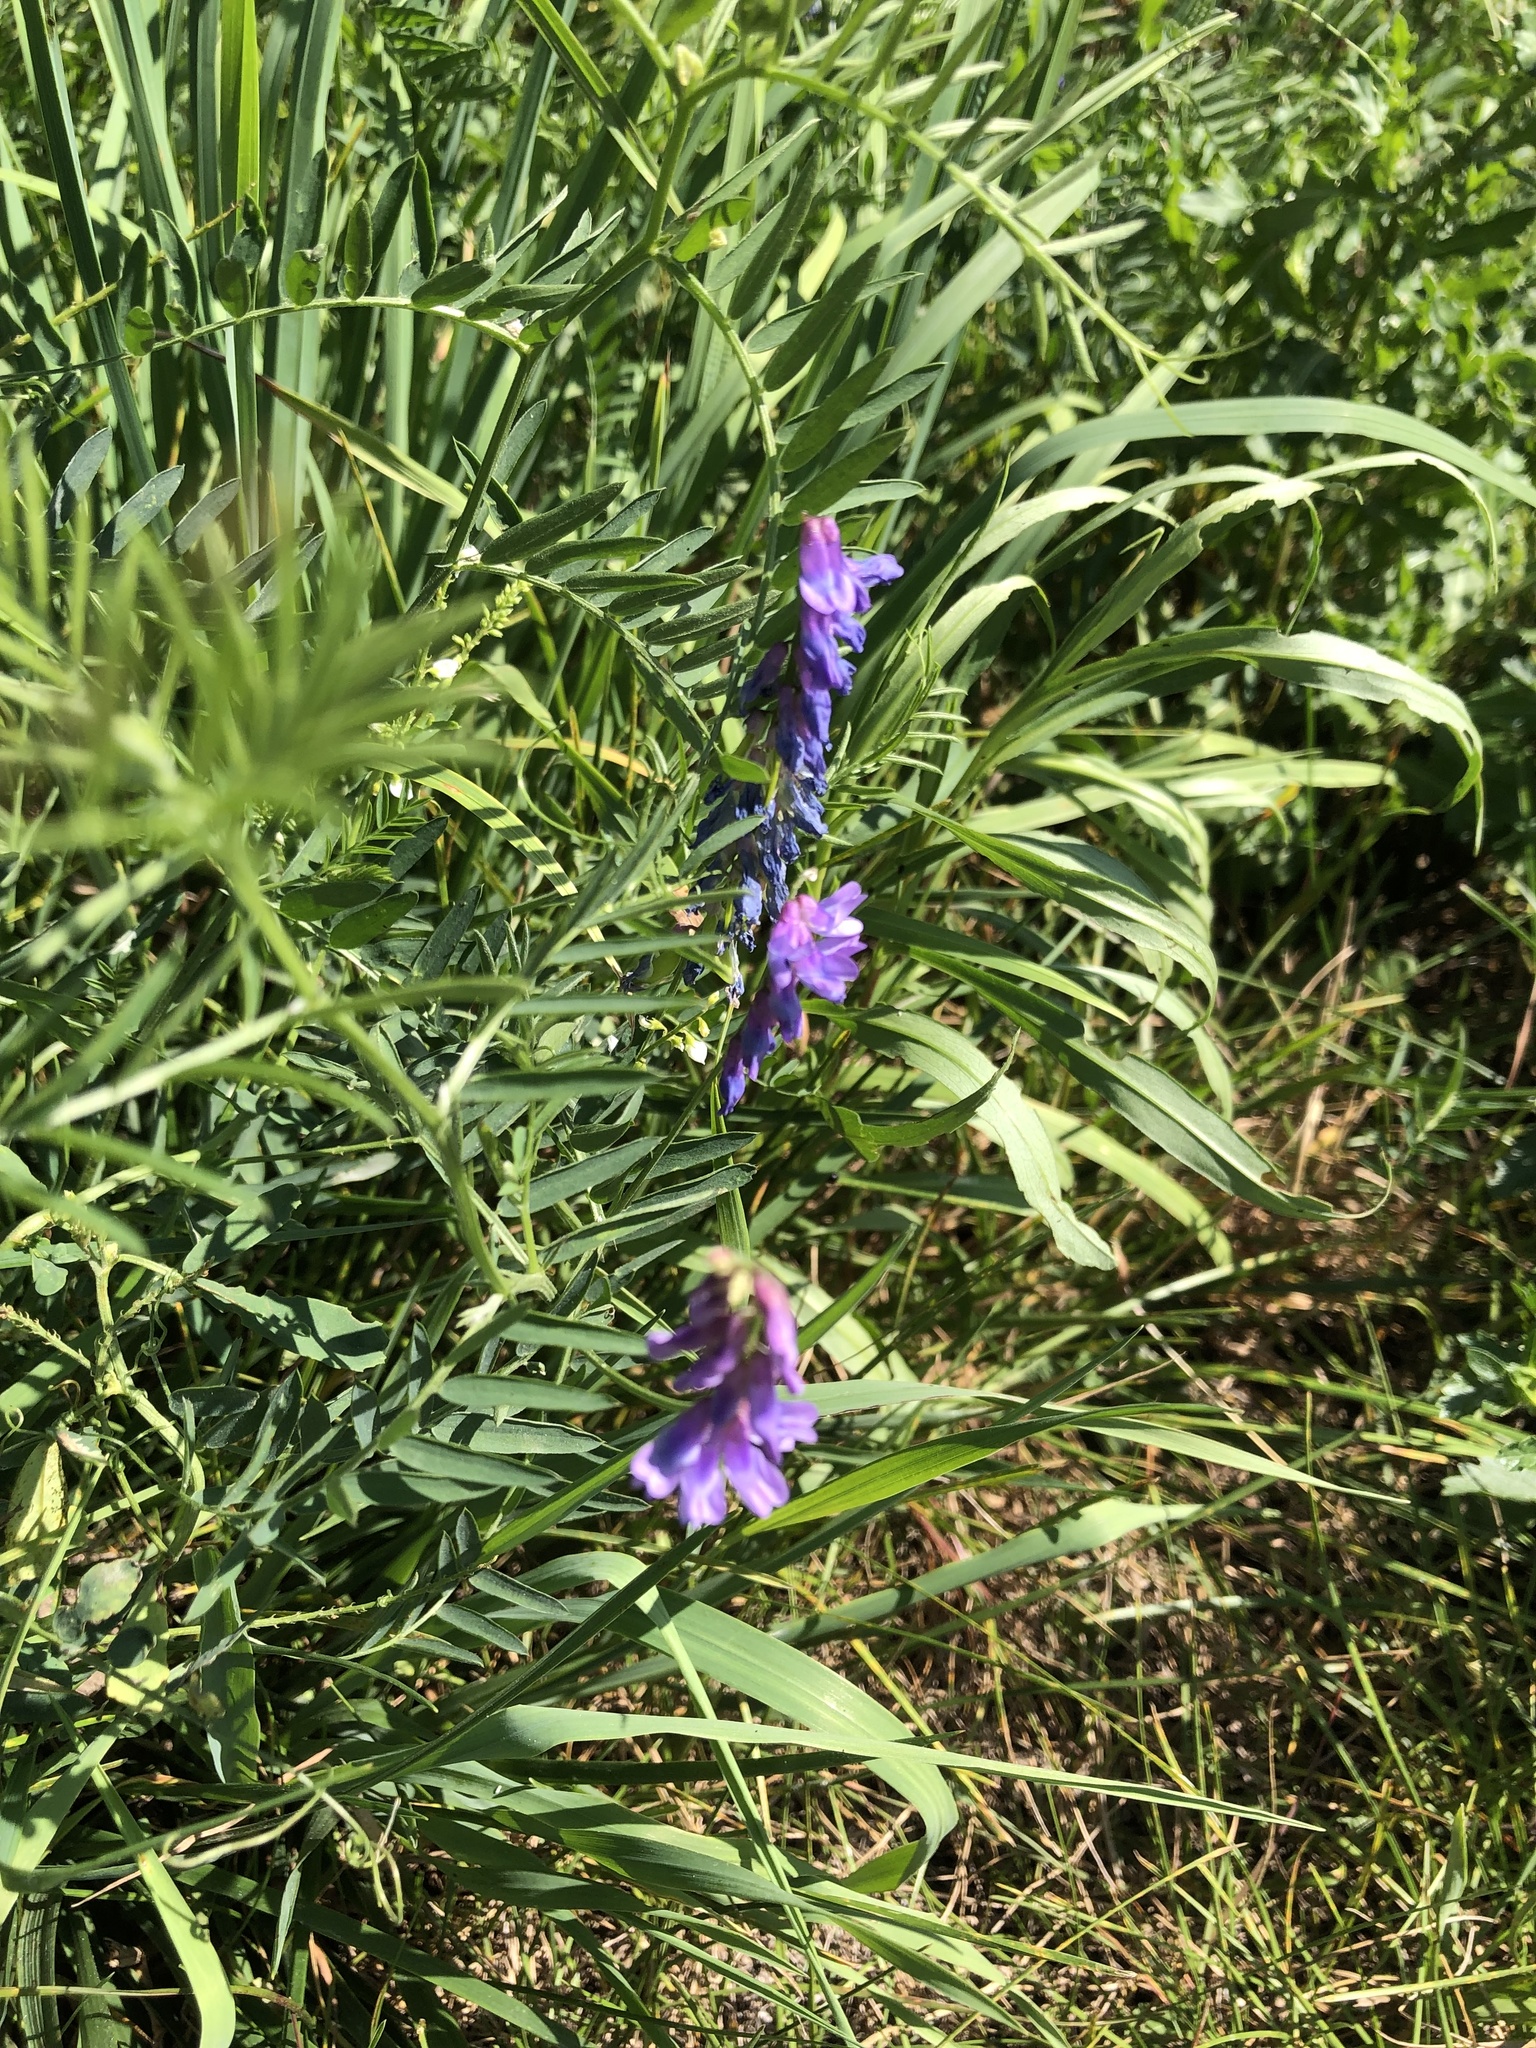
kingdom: Plantae
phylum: Tracheophyta
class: Magnoliopsida
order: Fabales
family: Fabaceae
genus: Vicia
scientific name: Vicia cracca
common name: Bird vetch
